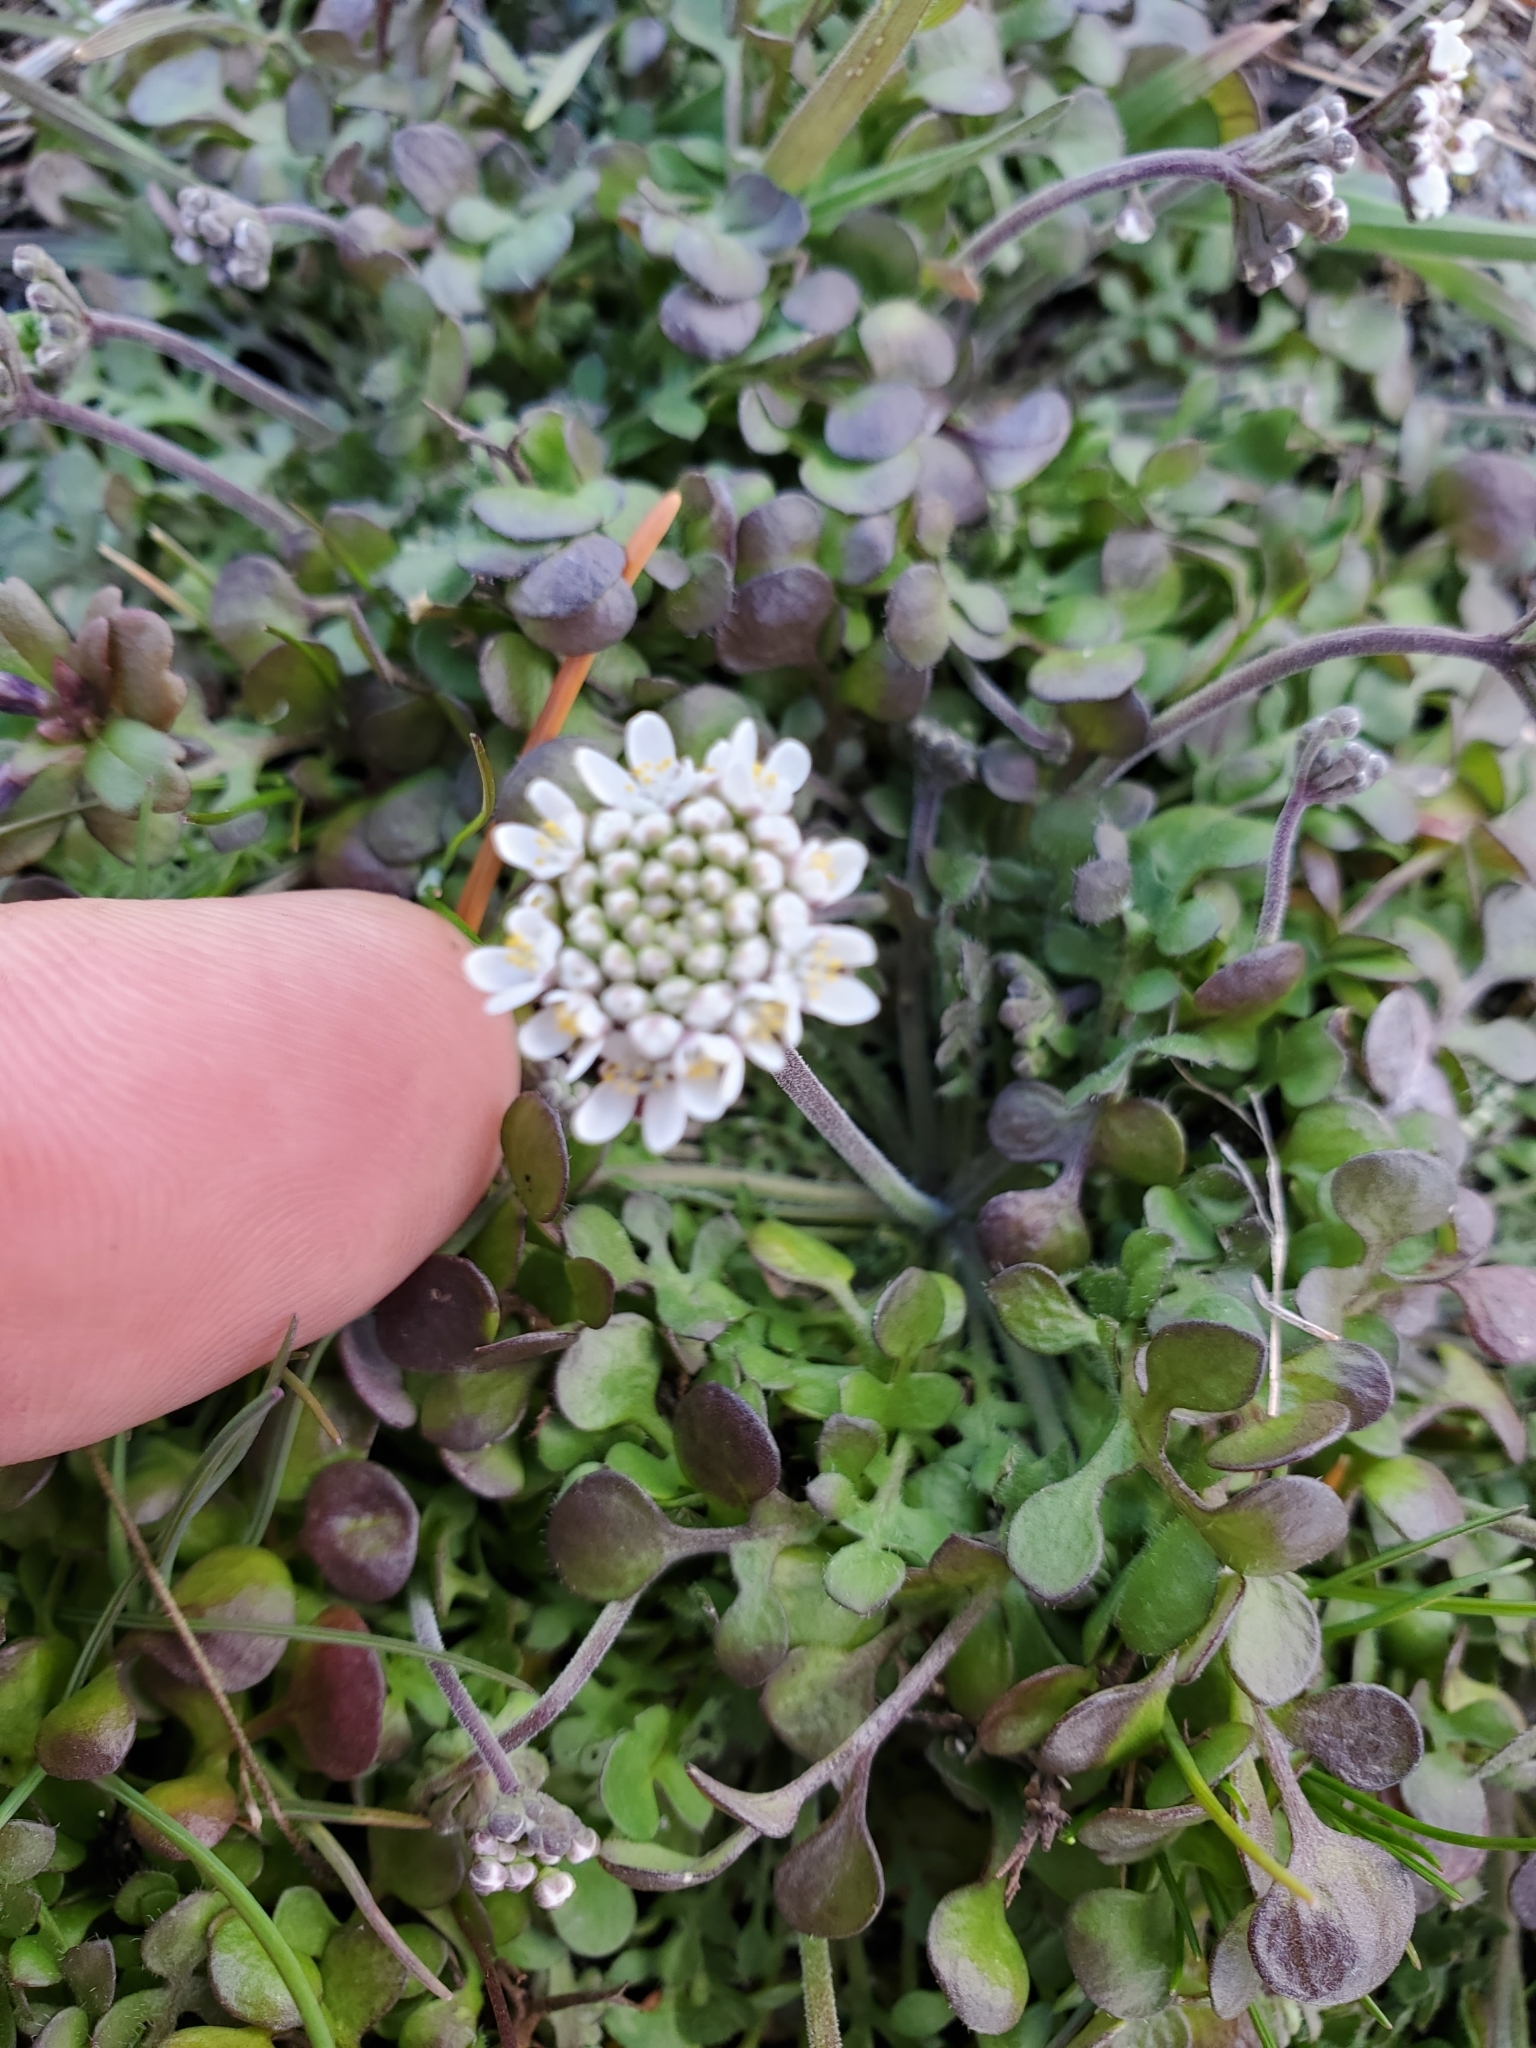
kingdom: Plantae
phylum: Tracheophyta
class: Magnoliopsida
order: Brassicales
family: Brassicaceae
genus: Teesdalia
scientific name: Teesdalia nudicaulis
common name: Shepherd's cress
